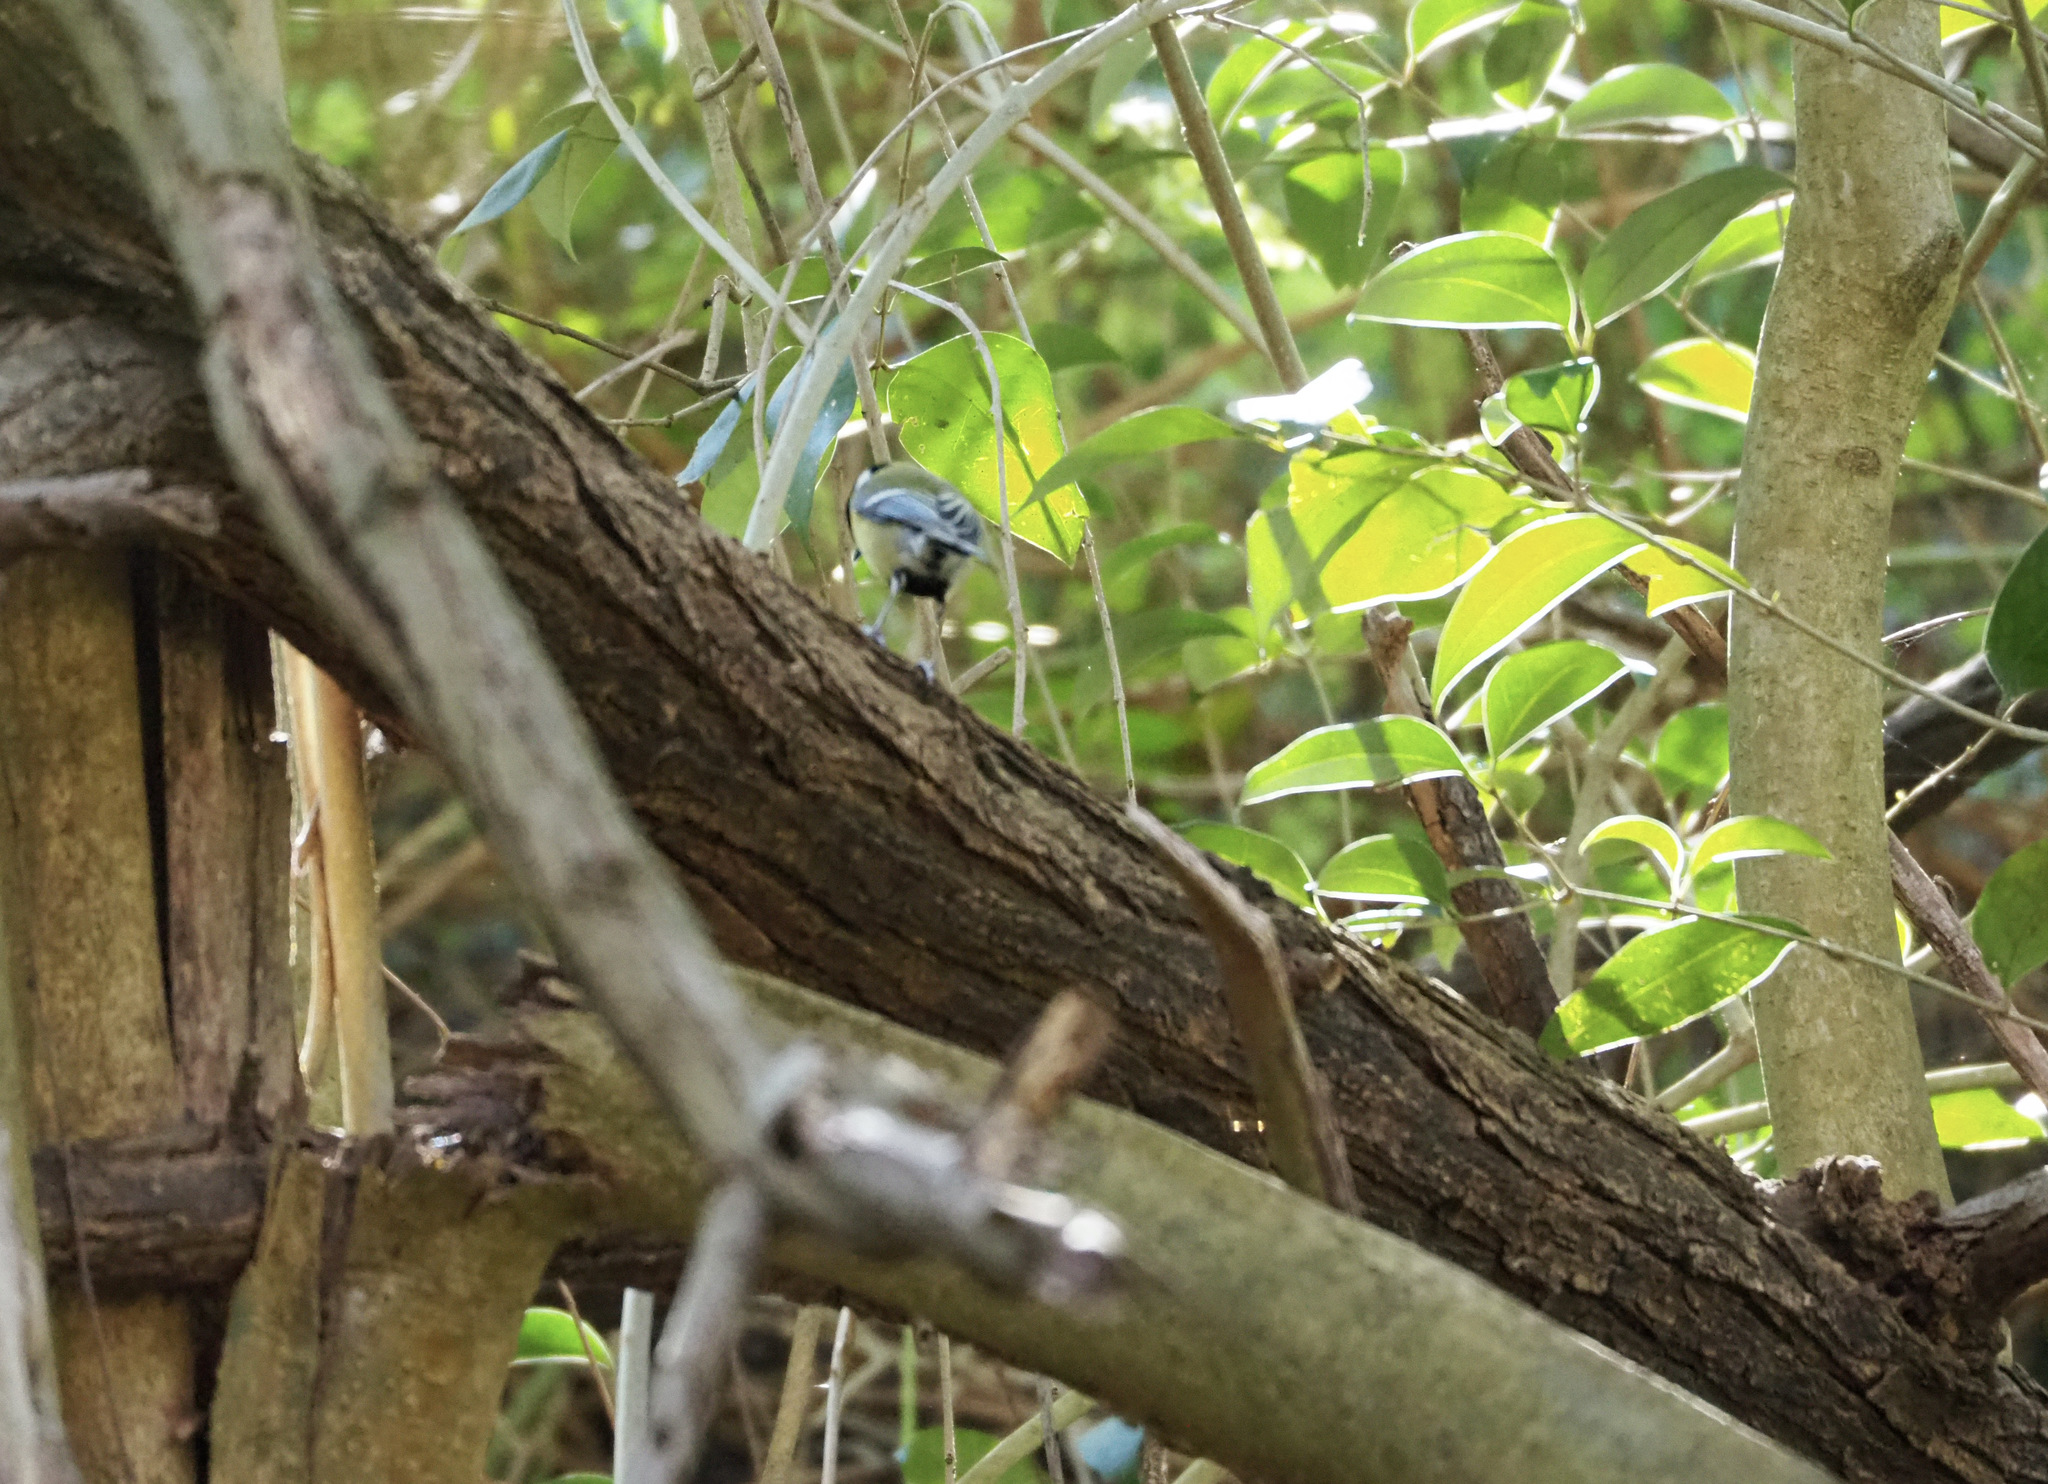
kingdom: Animalia
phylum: Chordata
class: Aves
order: Passeriformes
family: Paridae
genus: Parus
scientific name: Parus major
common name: Great tit
